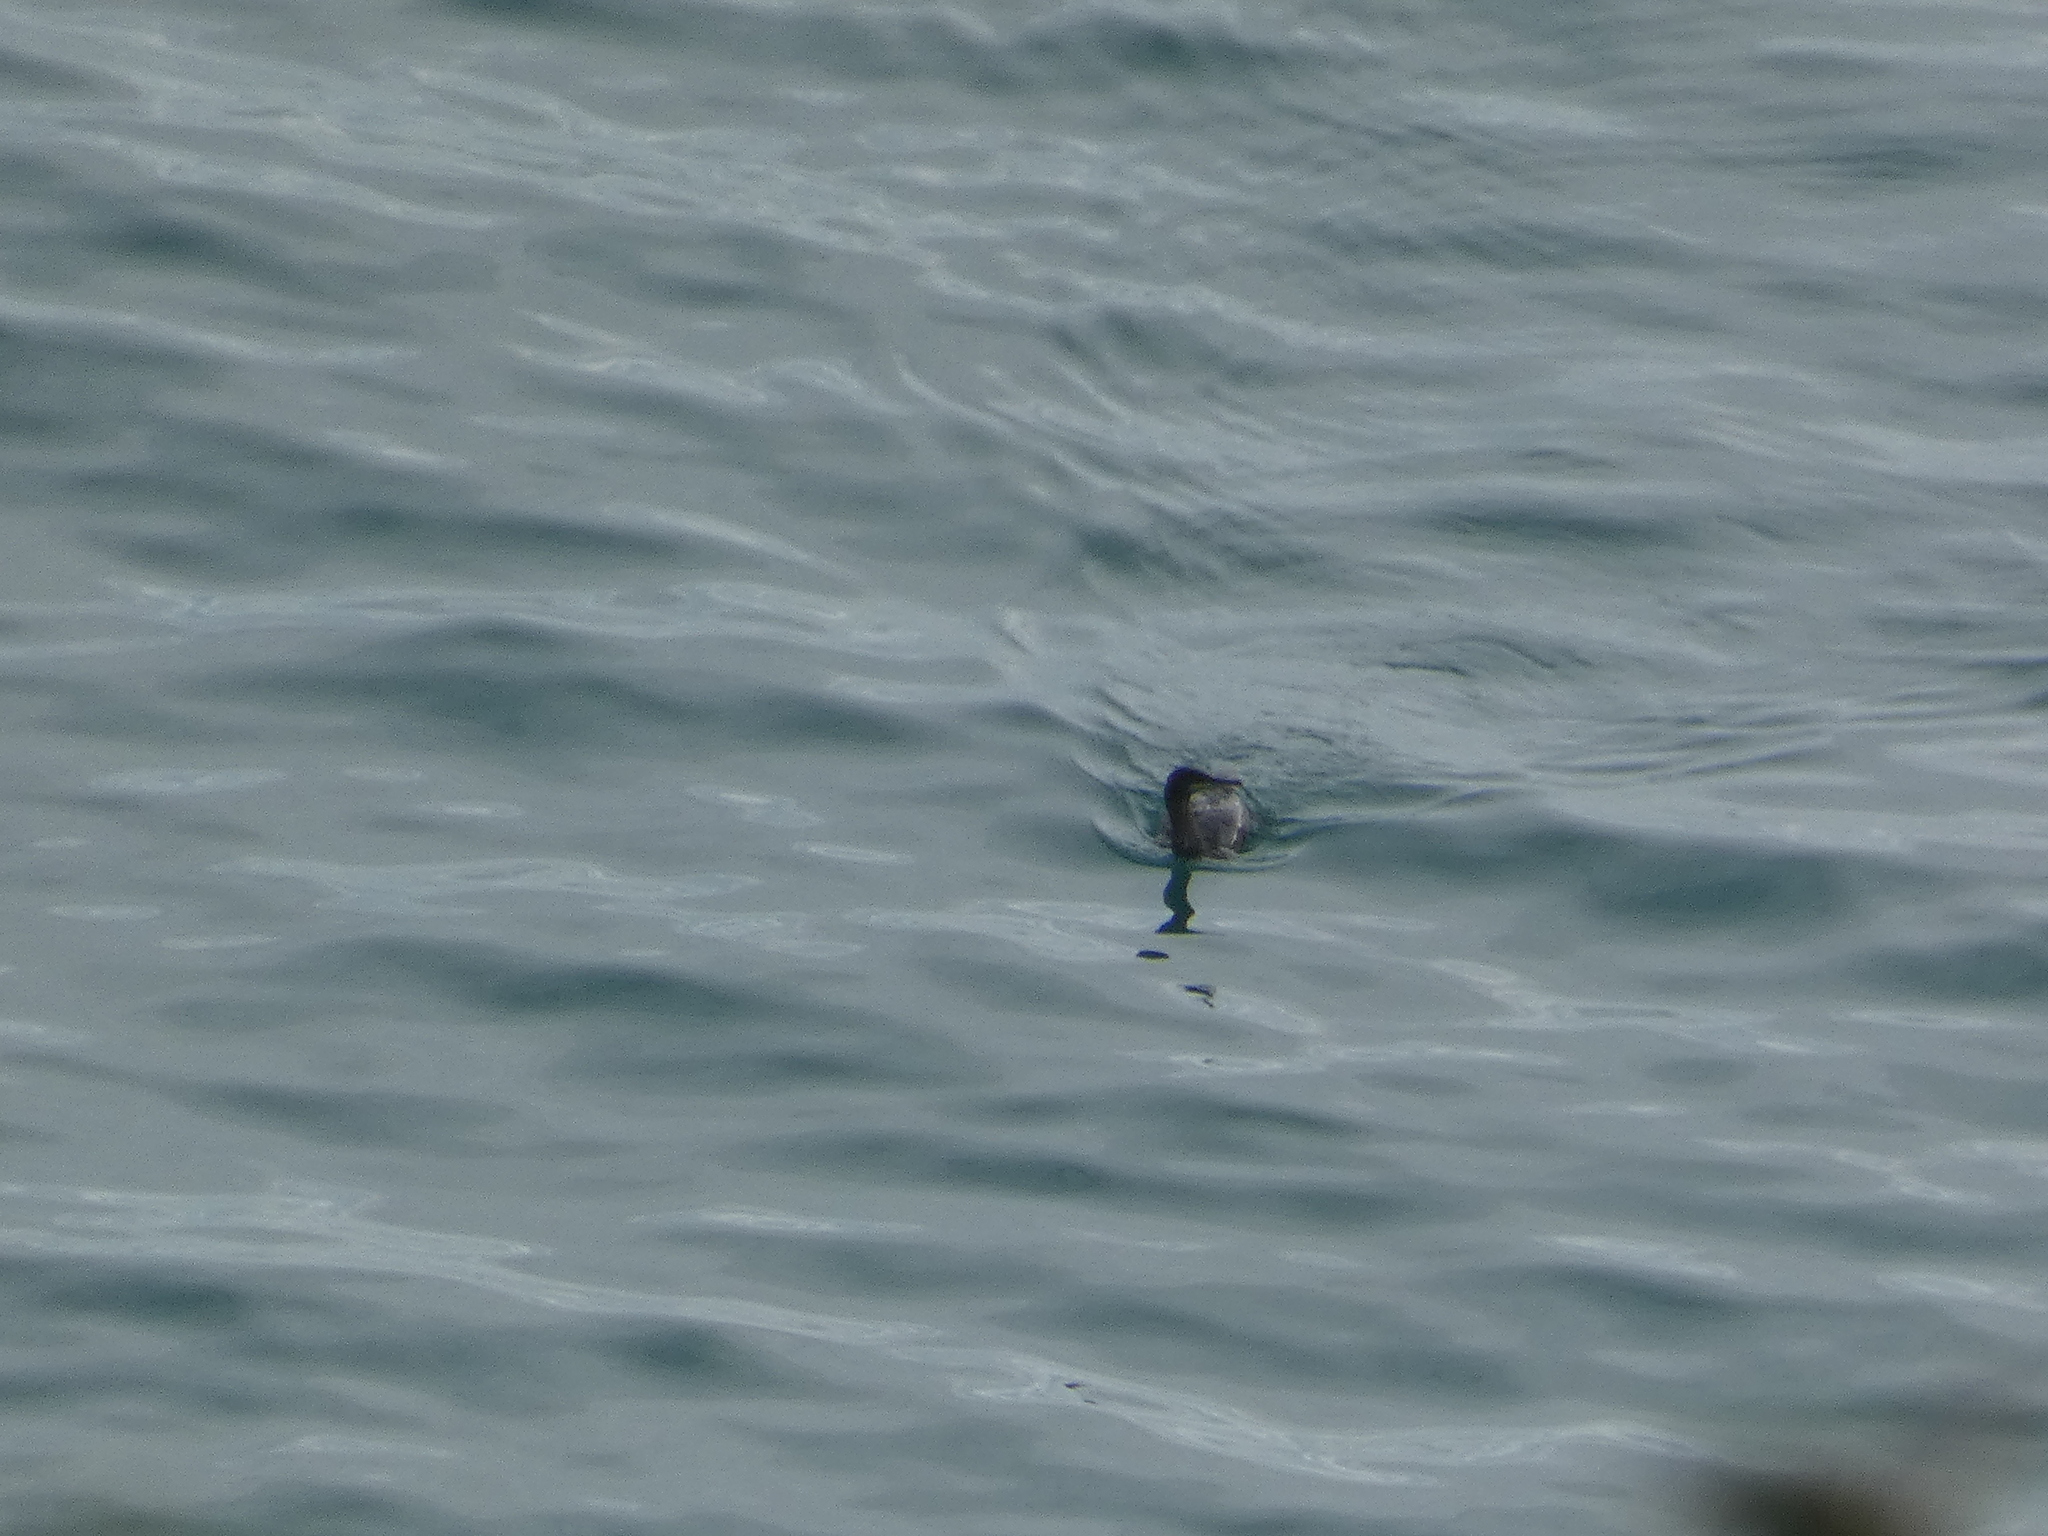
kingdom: Animalia
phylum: Chordata
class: Aves
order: Suliformes
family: Phalacrocoracidae
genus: Phalacrocorax
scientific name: Phalacrocorax aristotelis
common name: European shag
